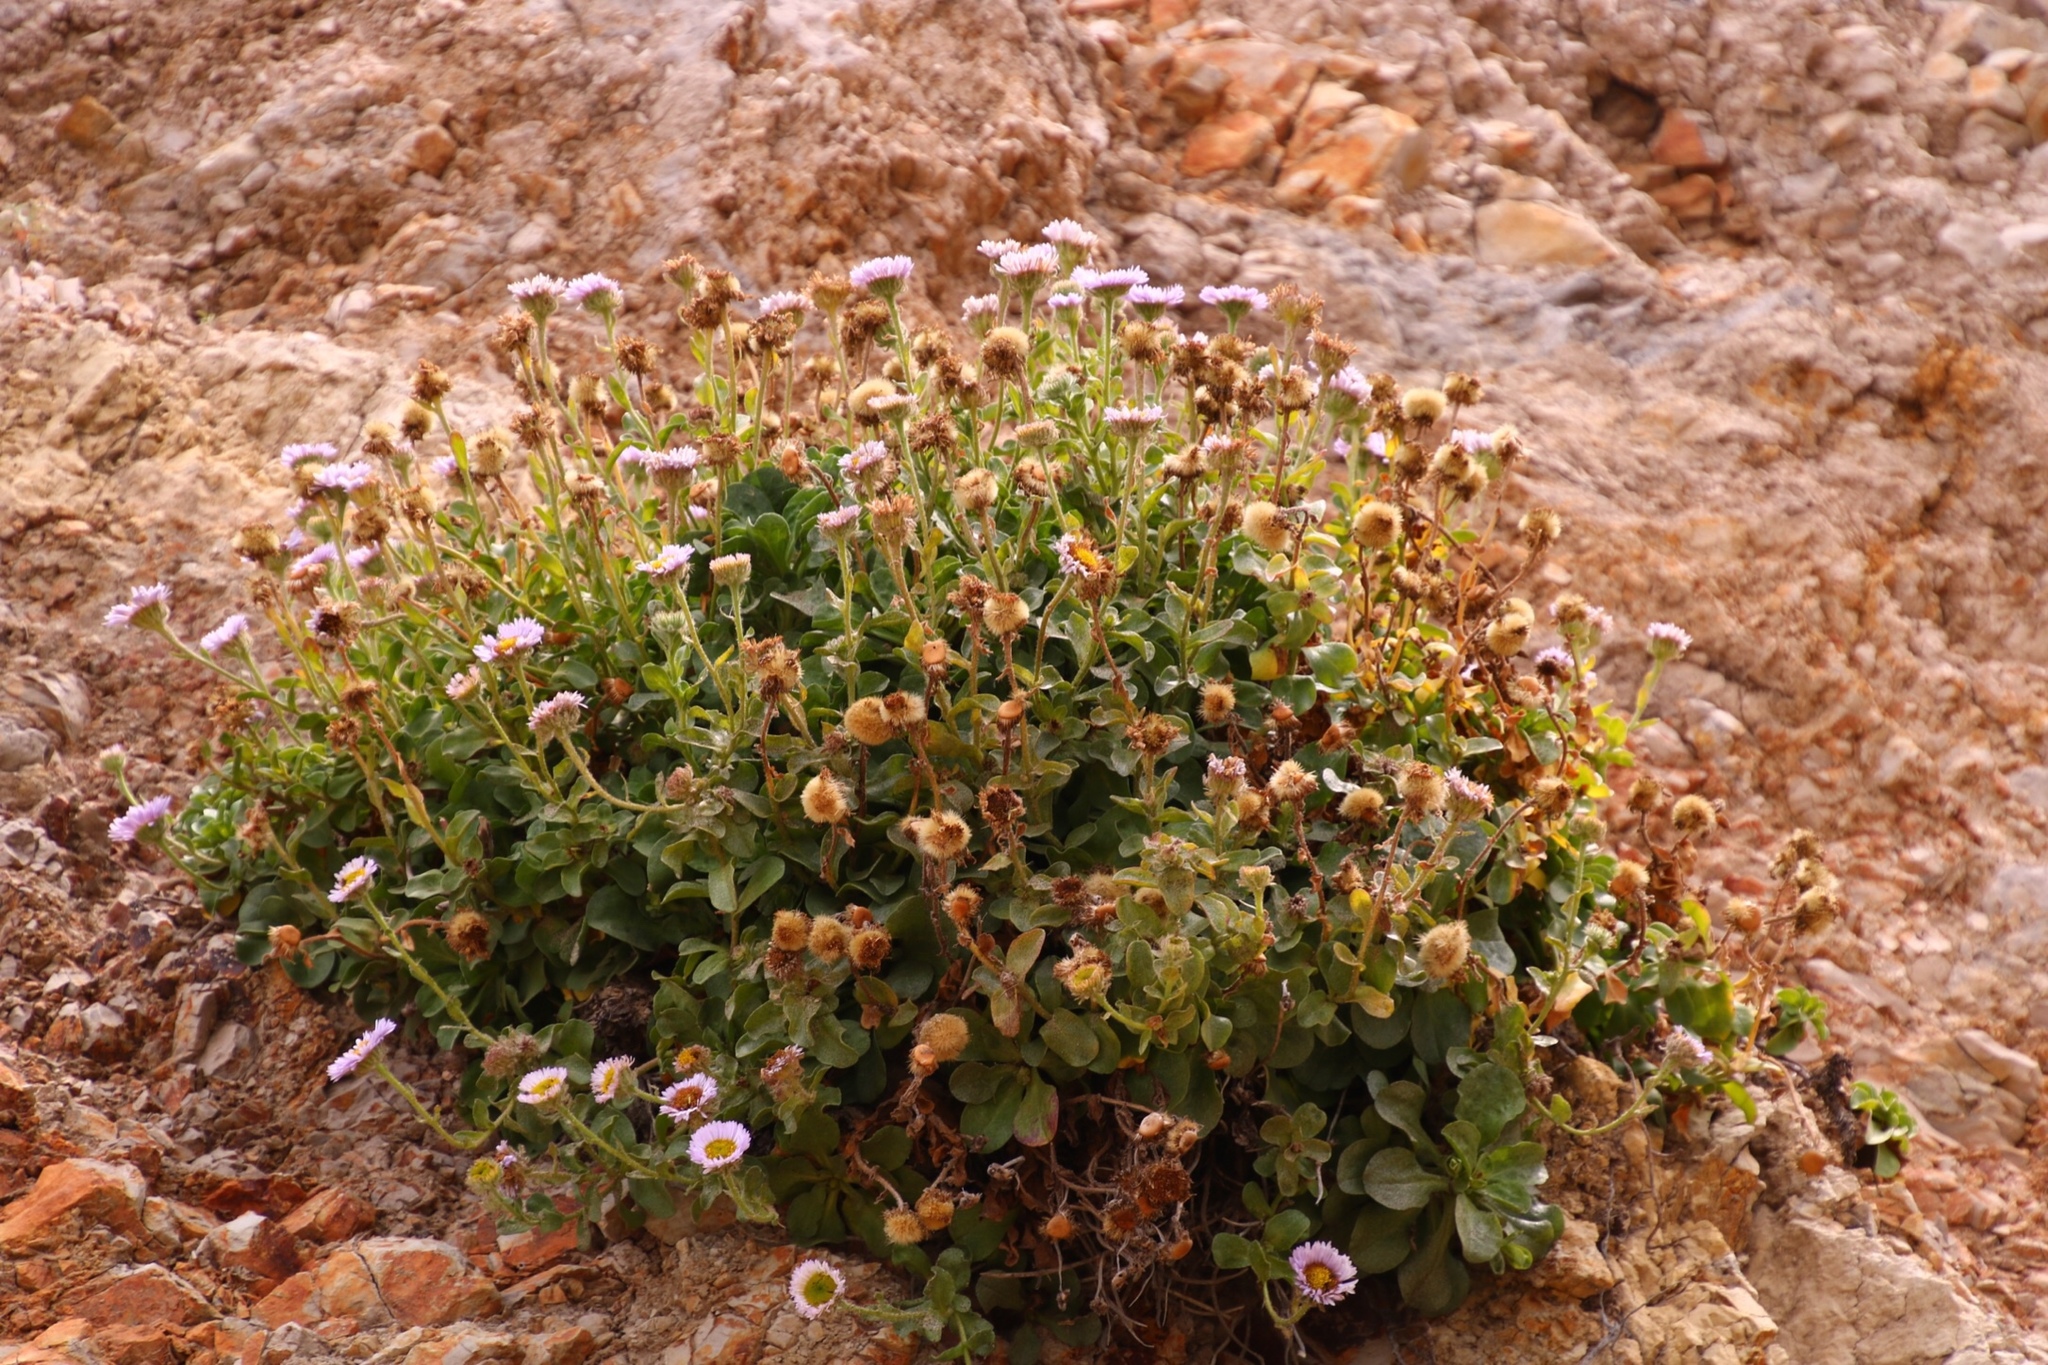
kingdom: Plantae
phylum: Tracheophyta
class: Magnoliopsida
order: Asterales
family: Asteraceae
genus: Erigeron
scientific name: Erigeron glaucus
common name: Seaside daisy
